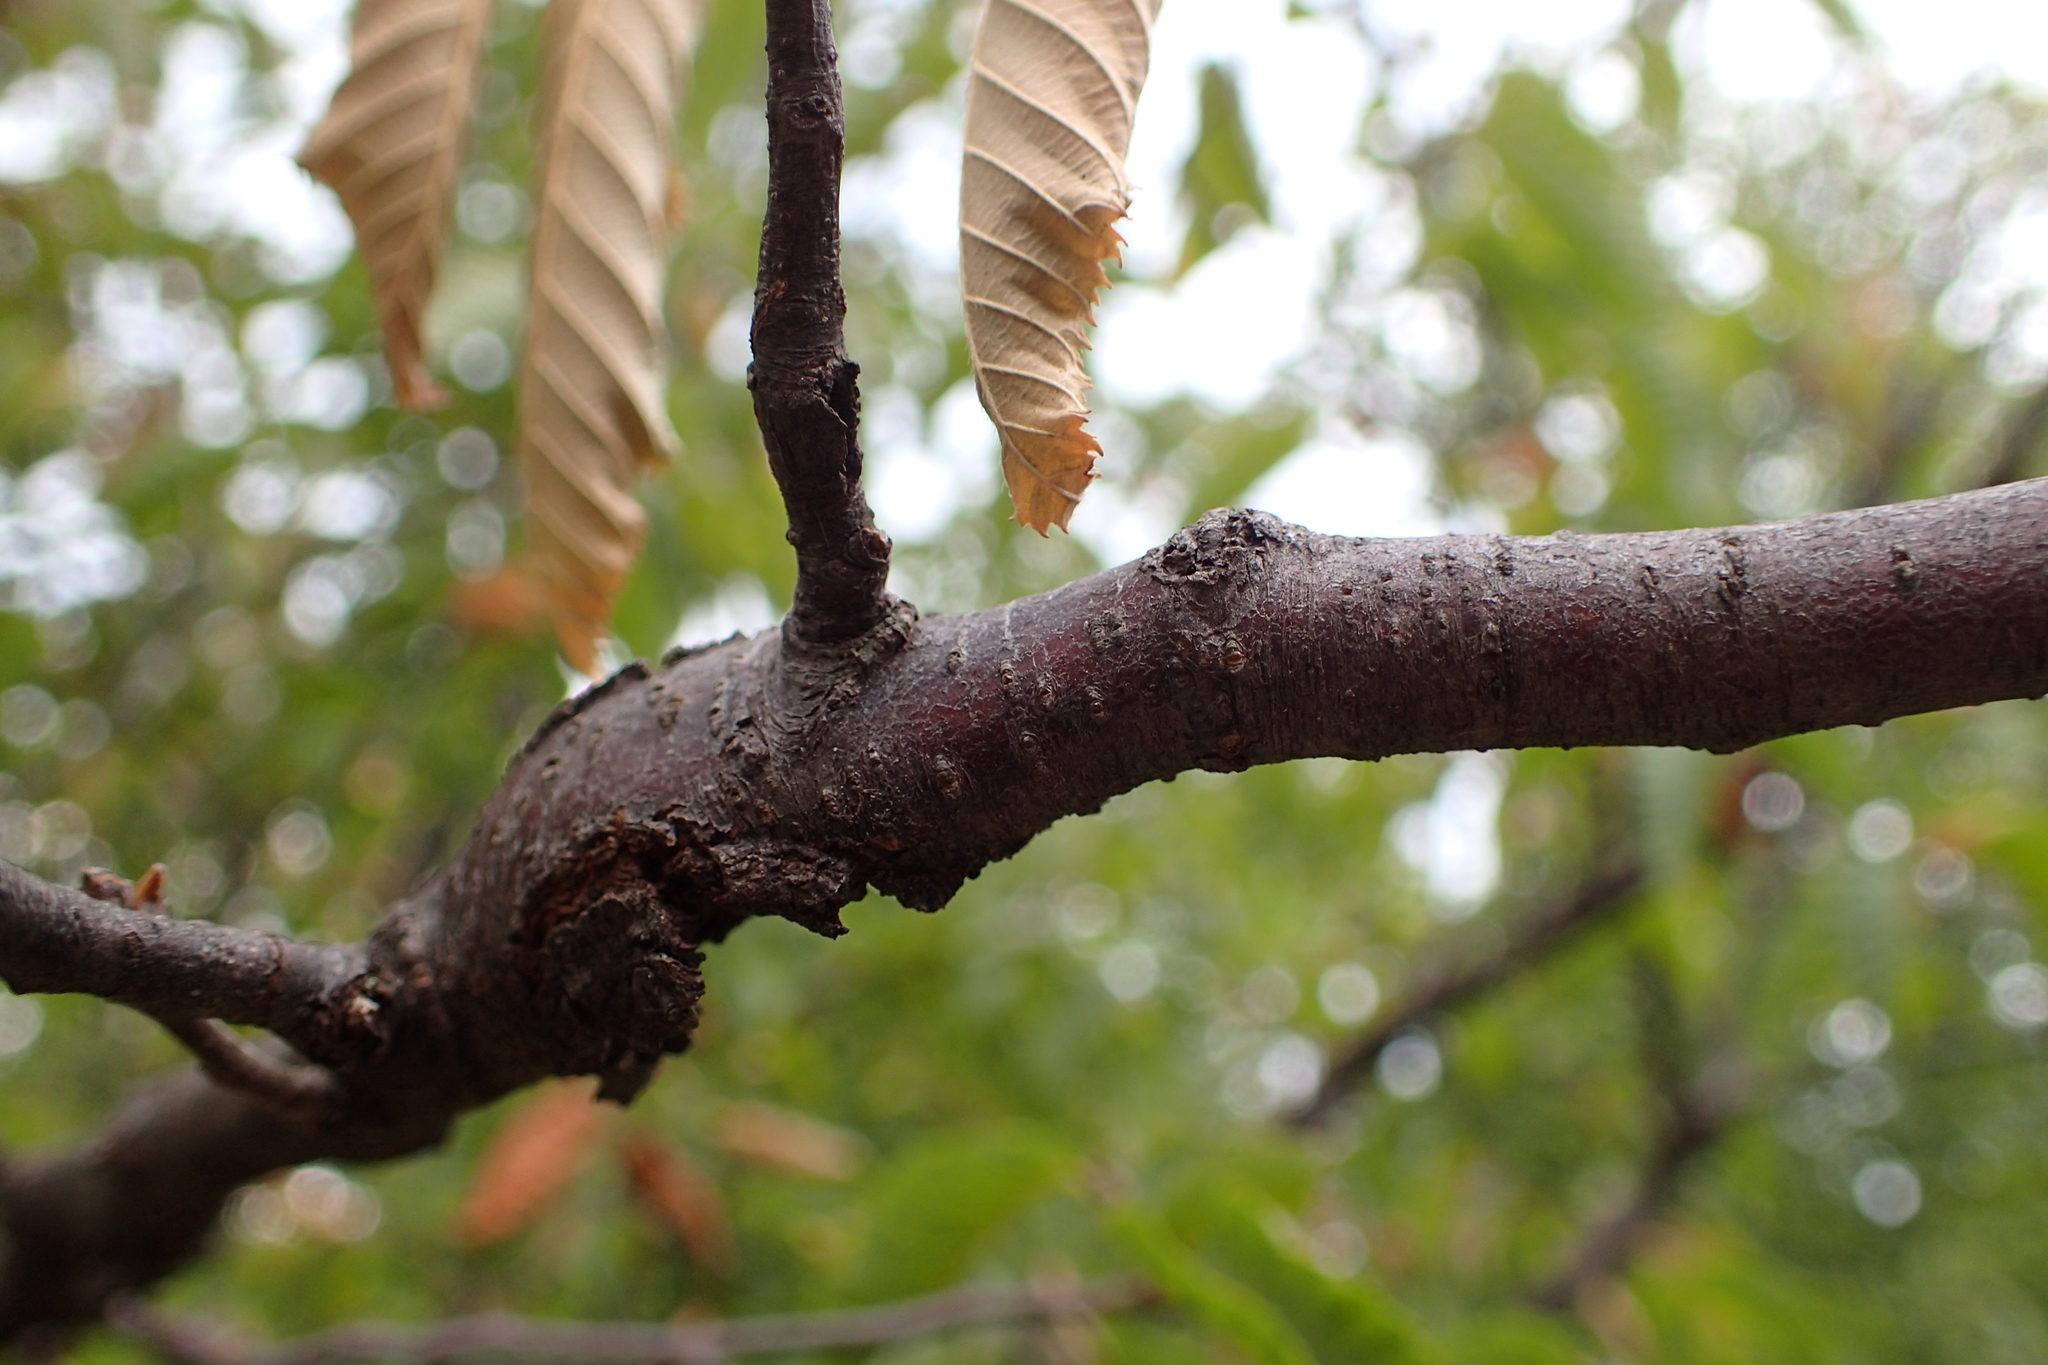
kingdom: Plantae
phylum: Tracheophyta
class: Magnoliopsida
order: Fagales
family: Betulaceae
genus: Ostrya
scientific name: Ostrya carpinifolia
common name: European hop-hornbeam
